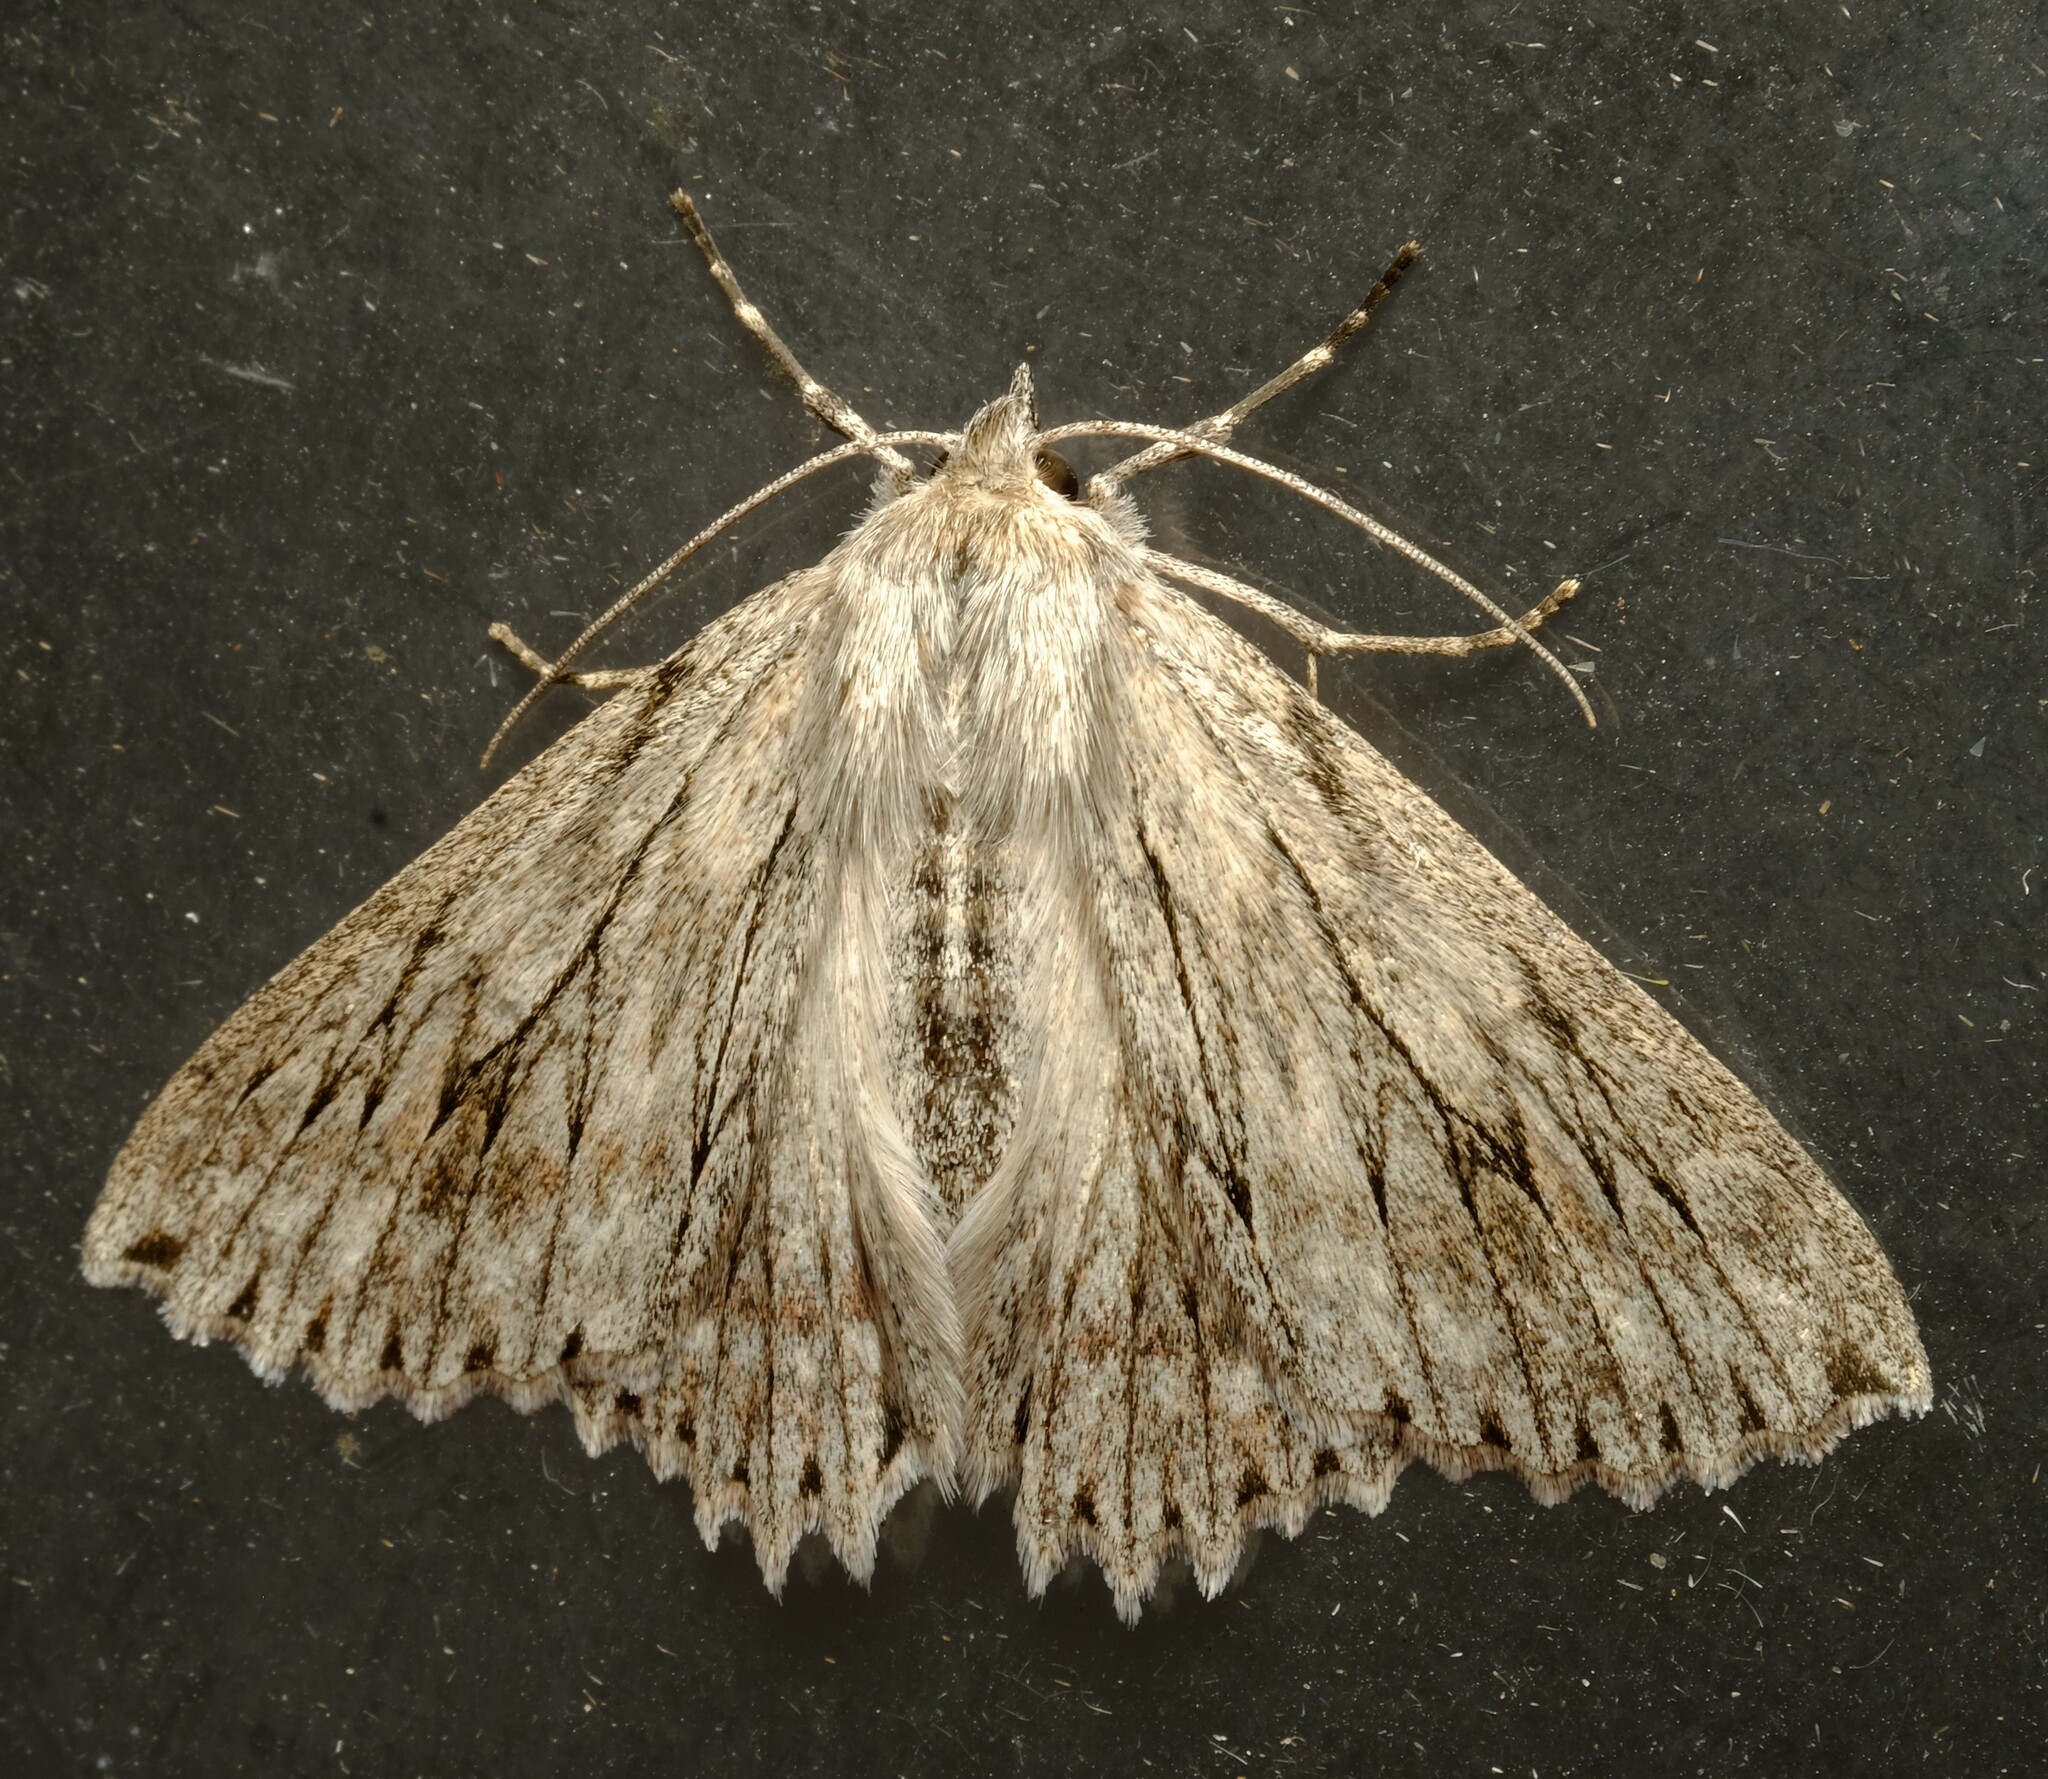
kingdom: Animalia
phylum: Arthropoda
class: Insecta
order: Lepidoptera
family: Geometridae
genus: Cyneoterpna
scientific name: Cyneoterpna wilsoni
